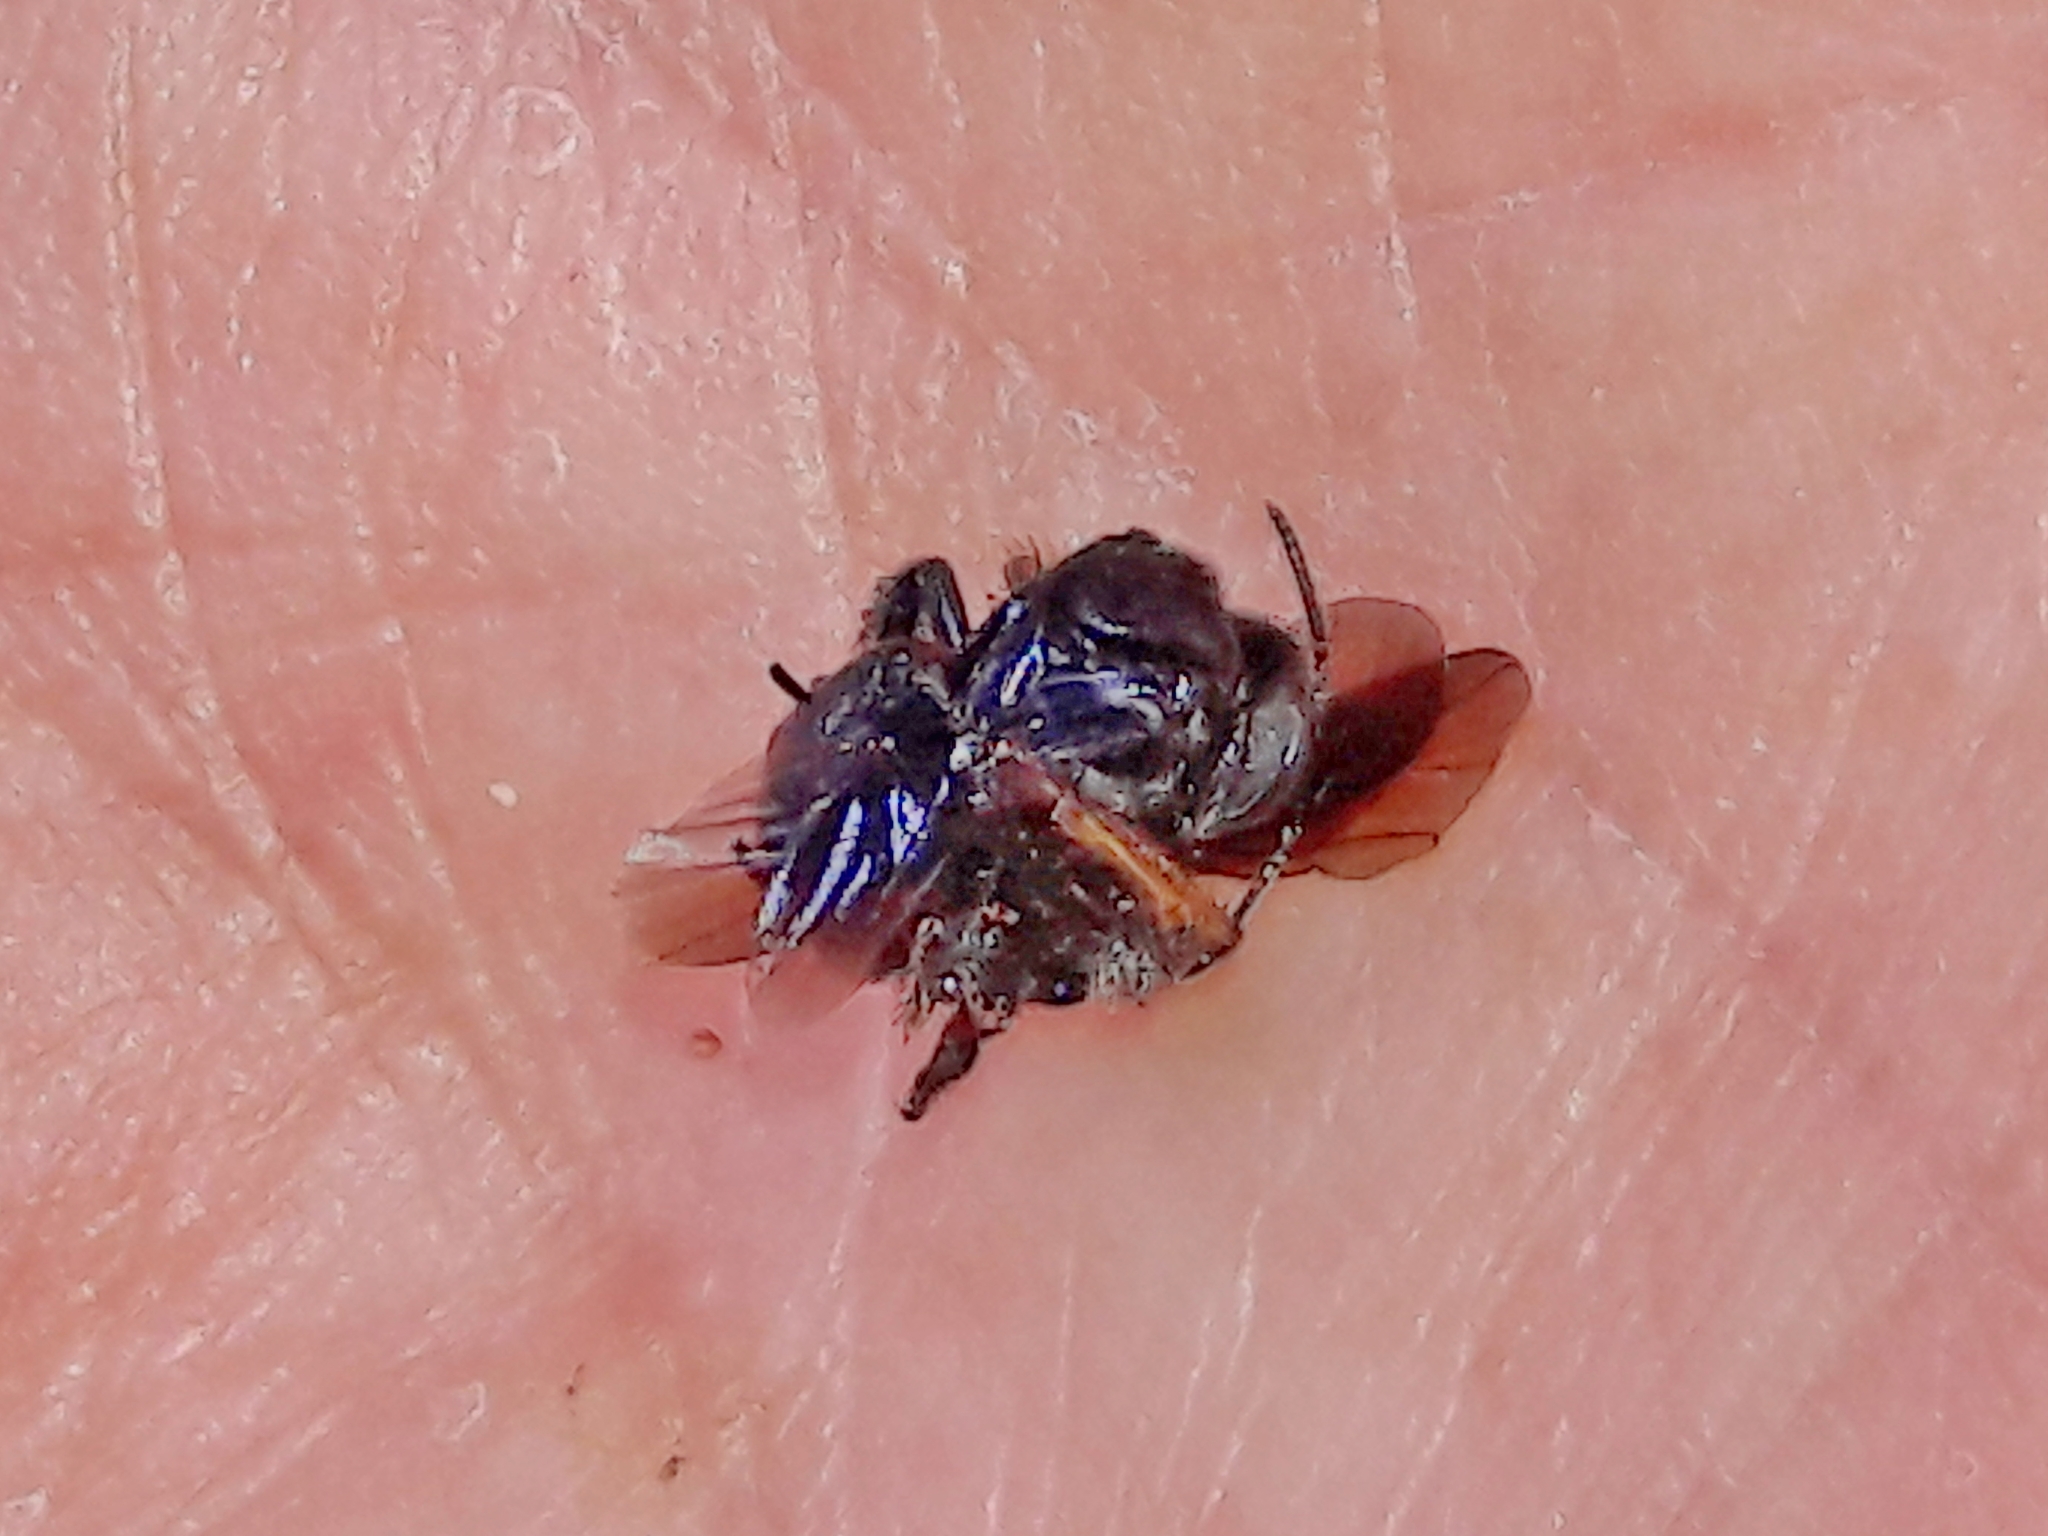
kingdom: Animalia
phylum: Arthropoda
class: Insecta
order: Hymenoptera
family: Apidae
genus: Trigona
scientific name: Trigona spinipes
